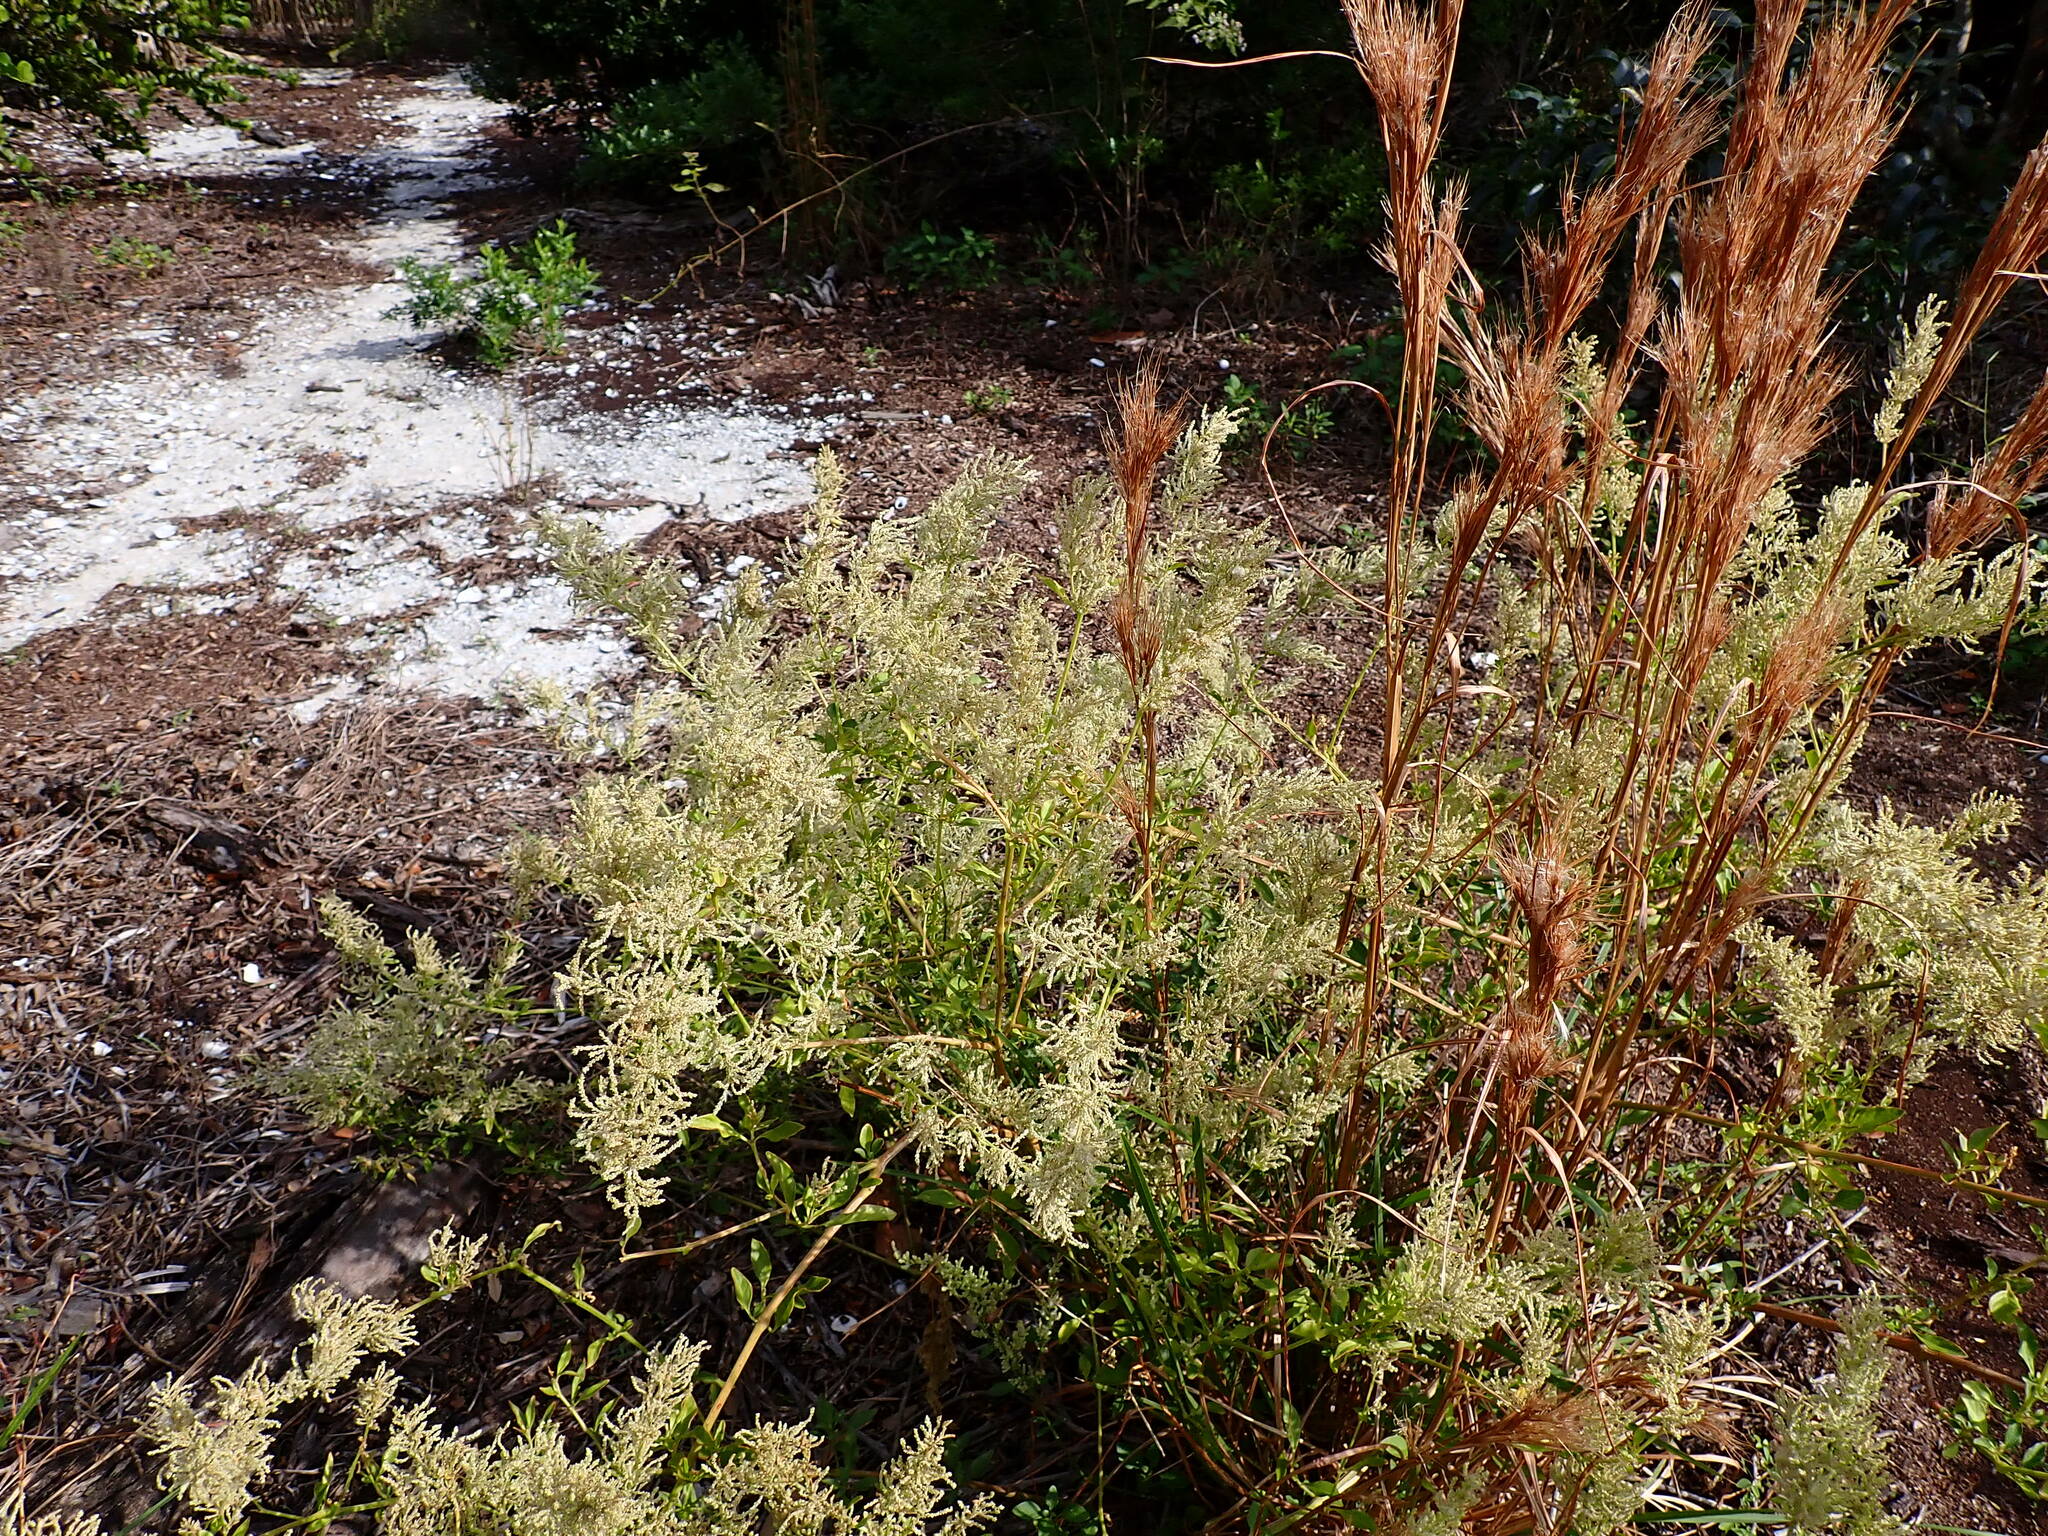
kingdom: Plantae
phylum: Tracheophyta
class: Magnoliopsida
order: Caryophyllales
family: Amaranthaceae
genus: Iresine
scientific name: Iresine diffusa
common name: Juba's-bush
